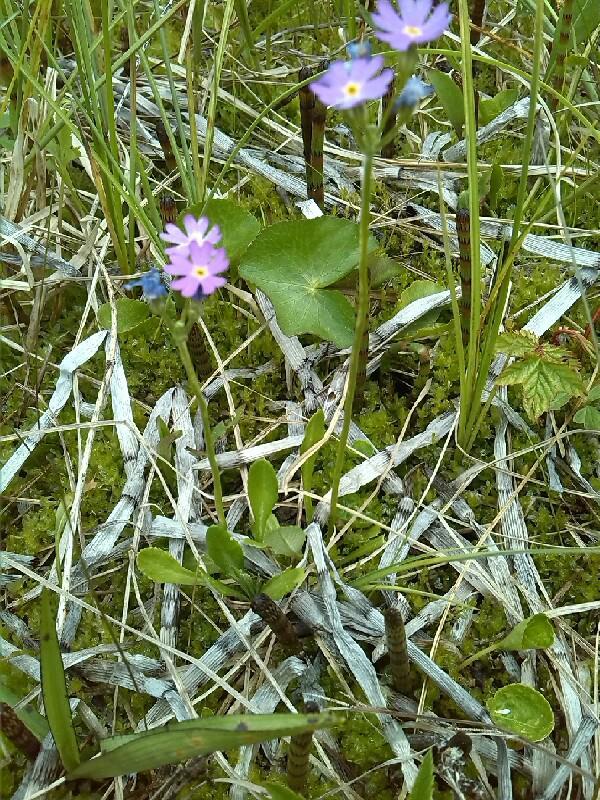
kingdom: Plantae
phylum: Tracheophyta
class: Magnoliopsida
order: Ericales
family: Primulaceae
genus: Primula
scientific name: Primula farinosa
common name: Bird's-eye primrose
